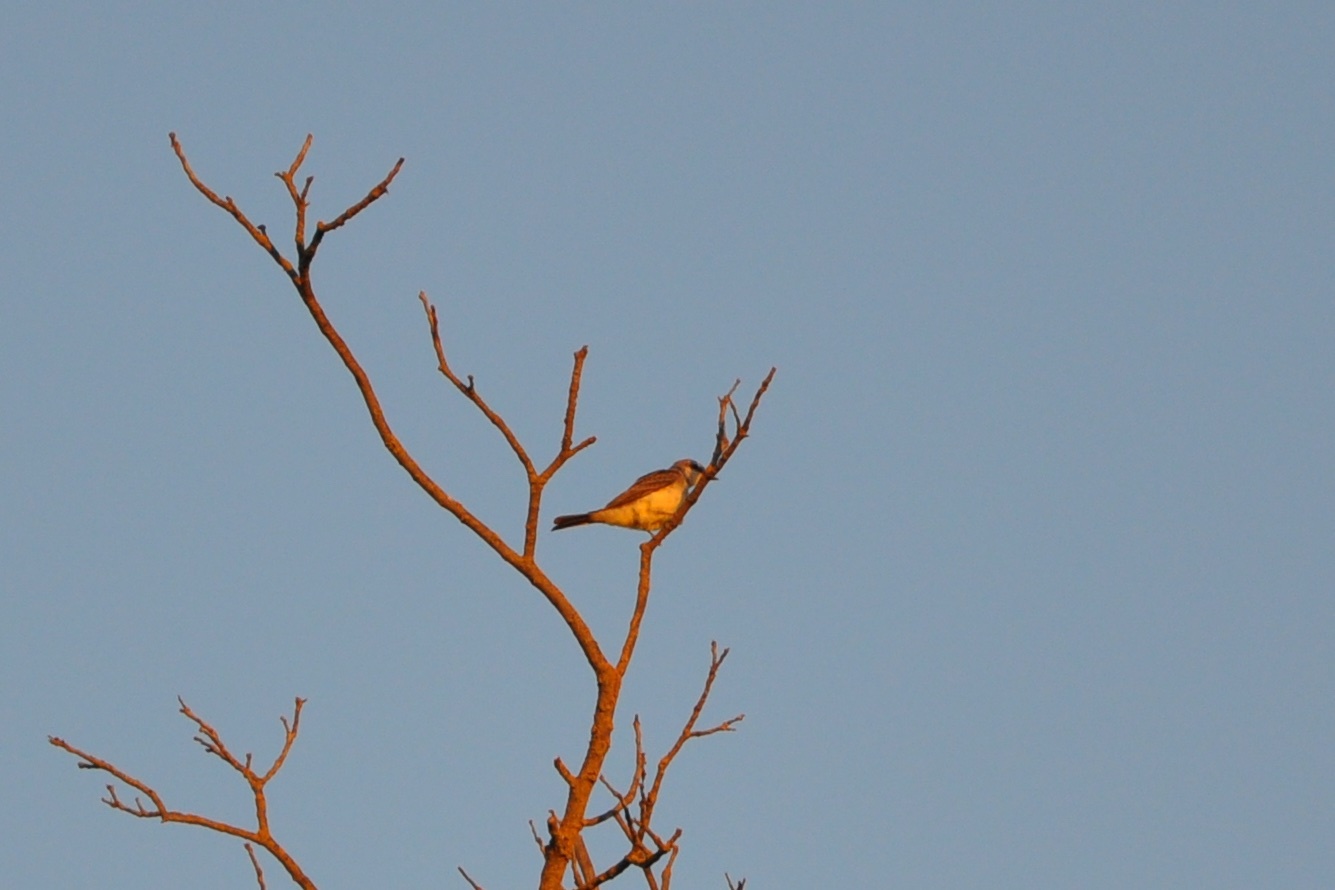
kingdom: Animalia
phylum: Chordata
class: Aves
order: Passeriformes
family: Tyrannidae
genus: Tyrannus
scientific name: Tyrannus verticalis
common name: Western kingbird
